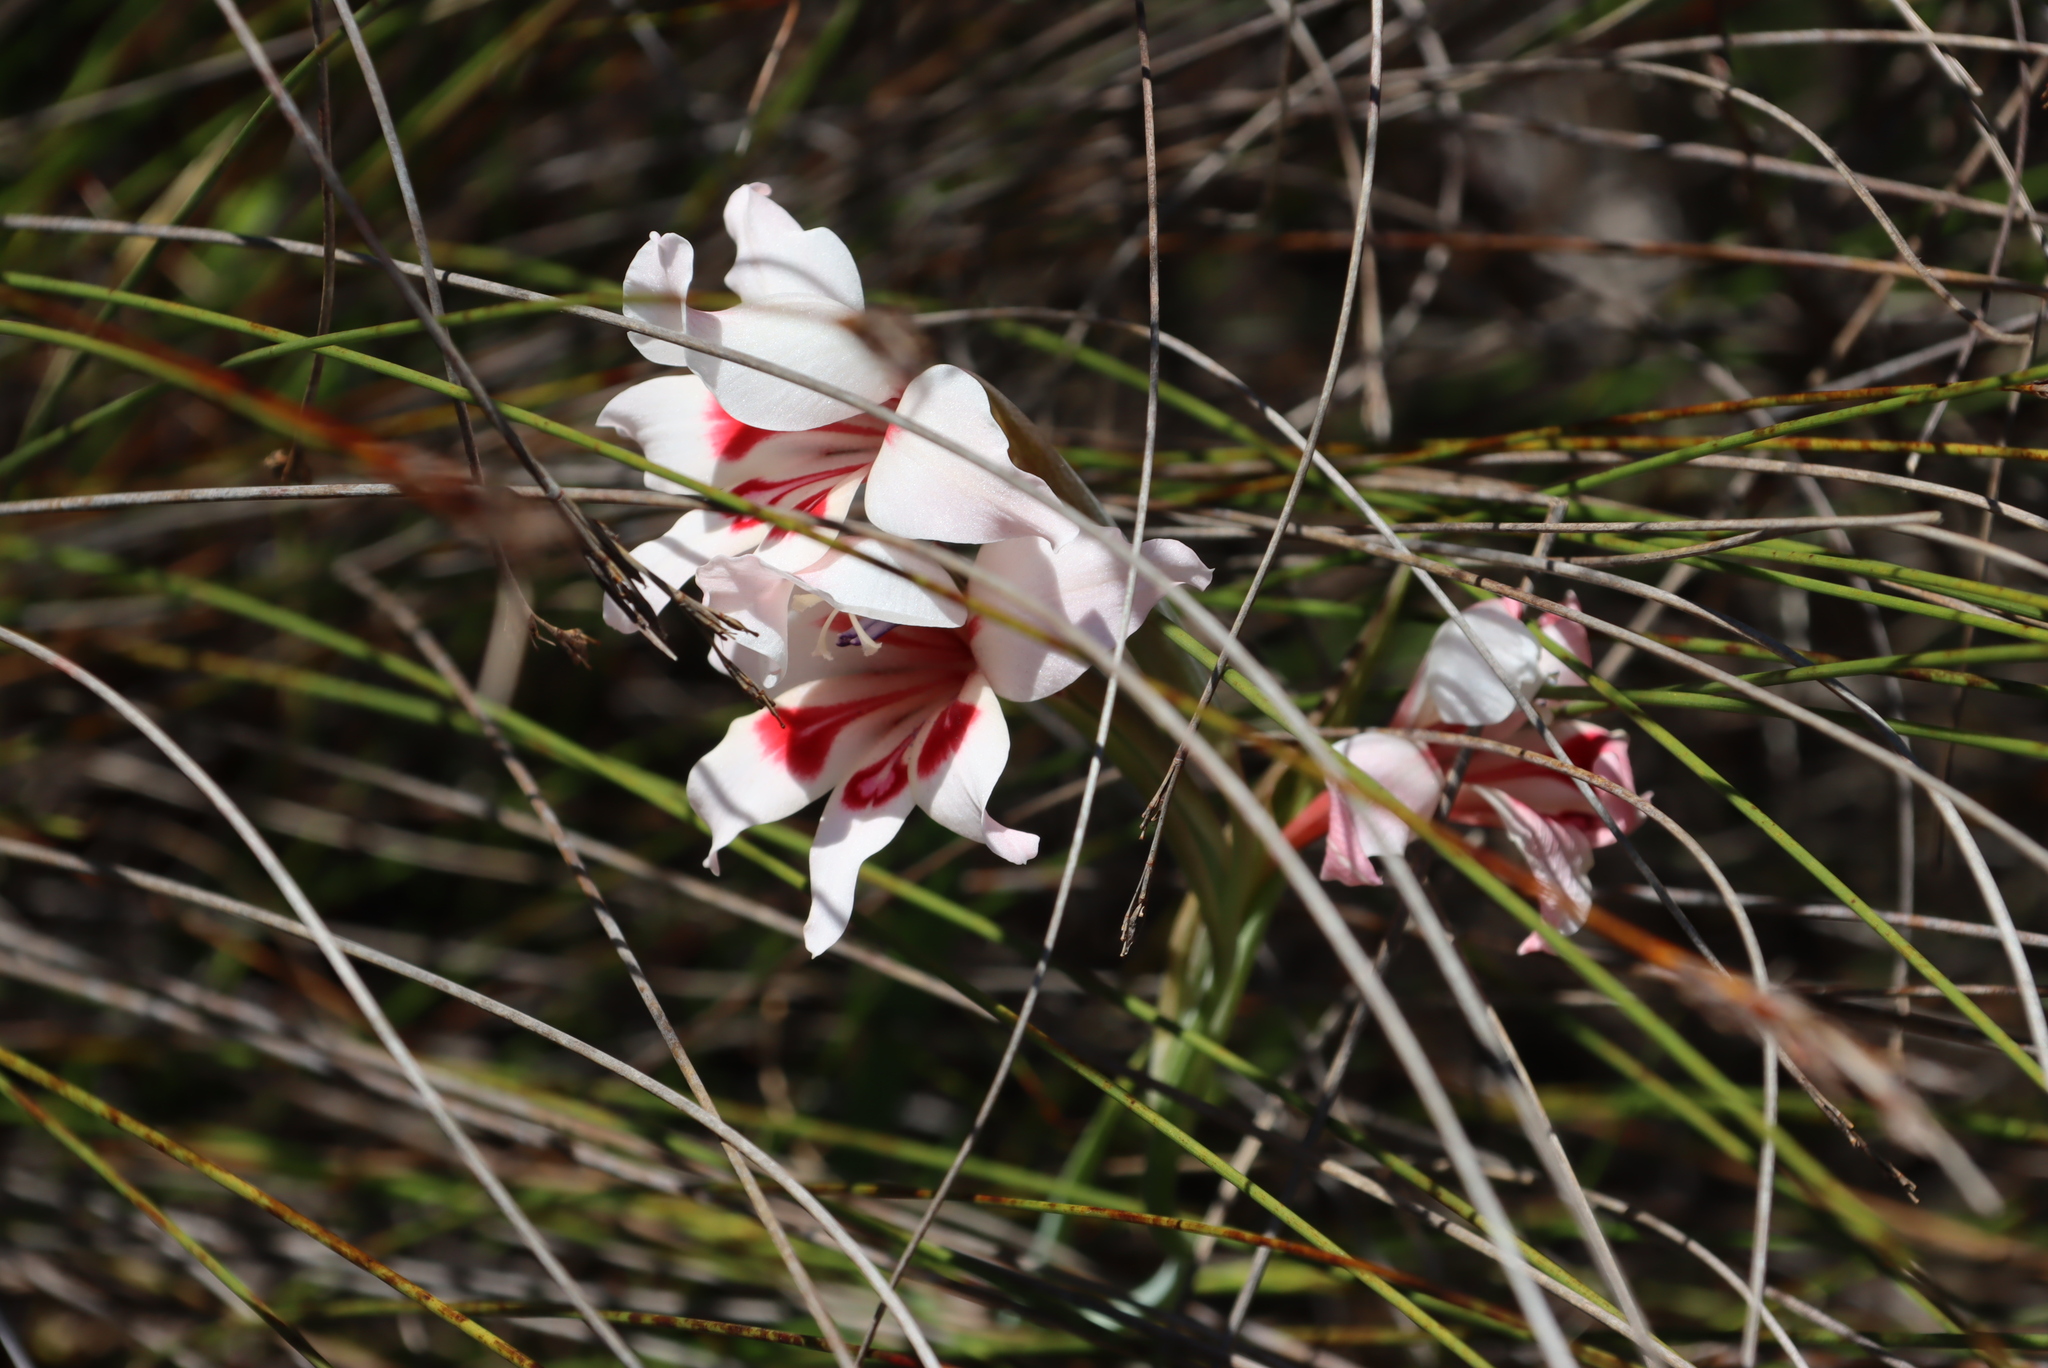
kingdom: Plantae
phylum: Tracheophyta
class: Liliopsida
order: Asparagales
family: Iridaceae
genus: Gladiolus
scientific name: Gladiolus carneus
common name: Painted-lady
